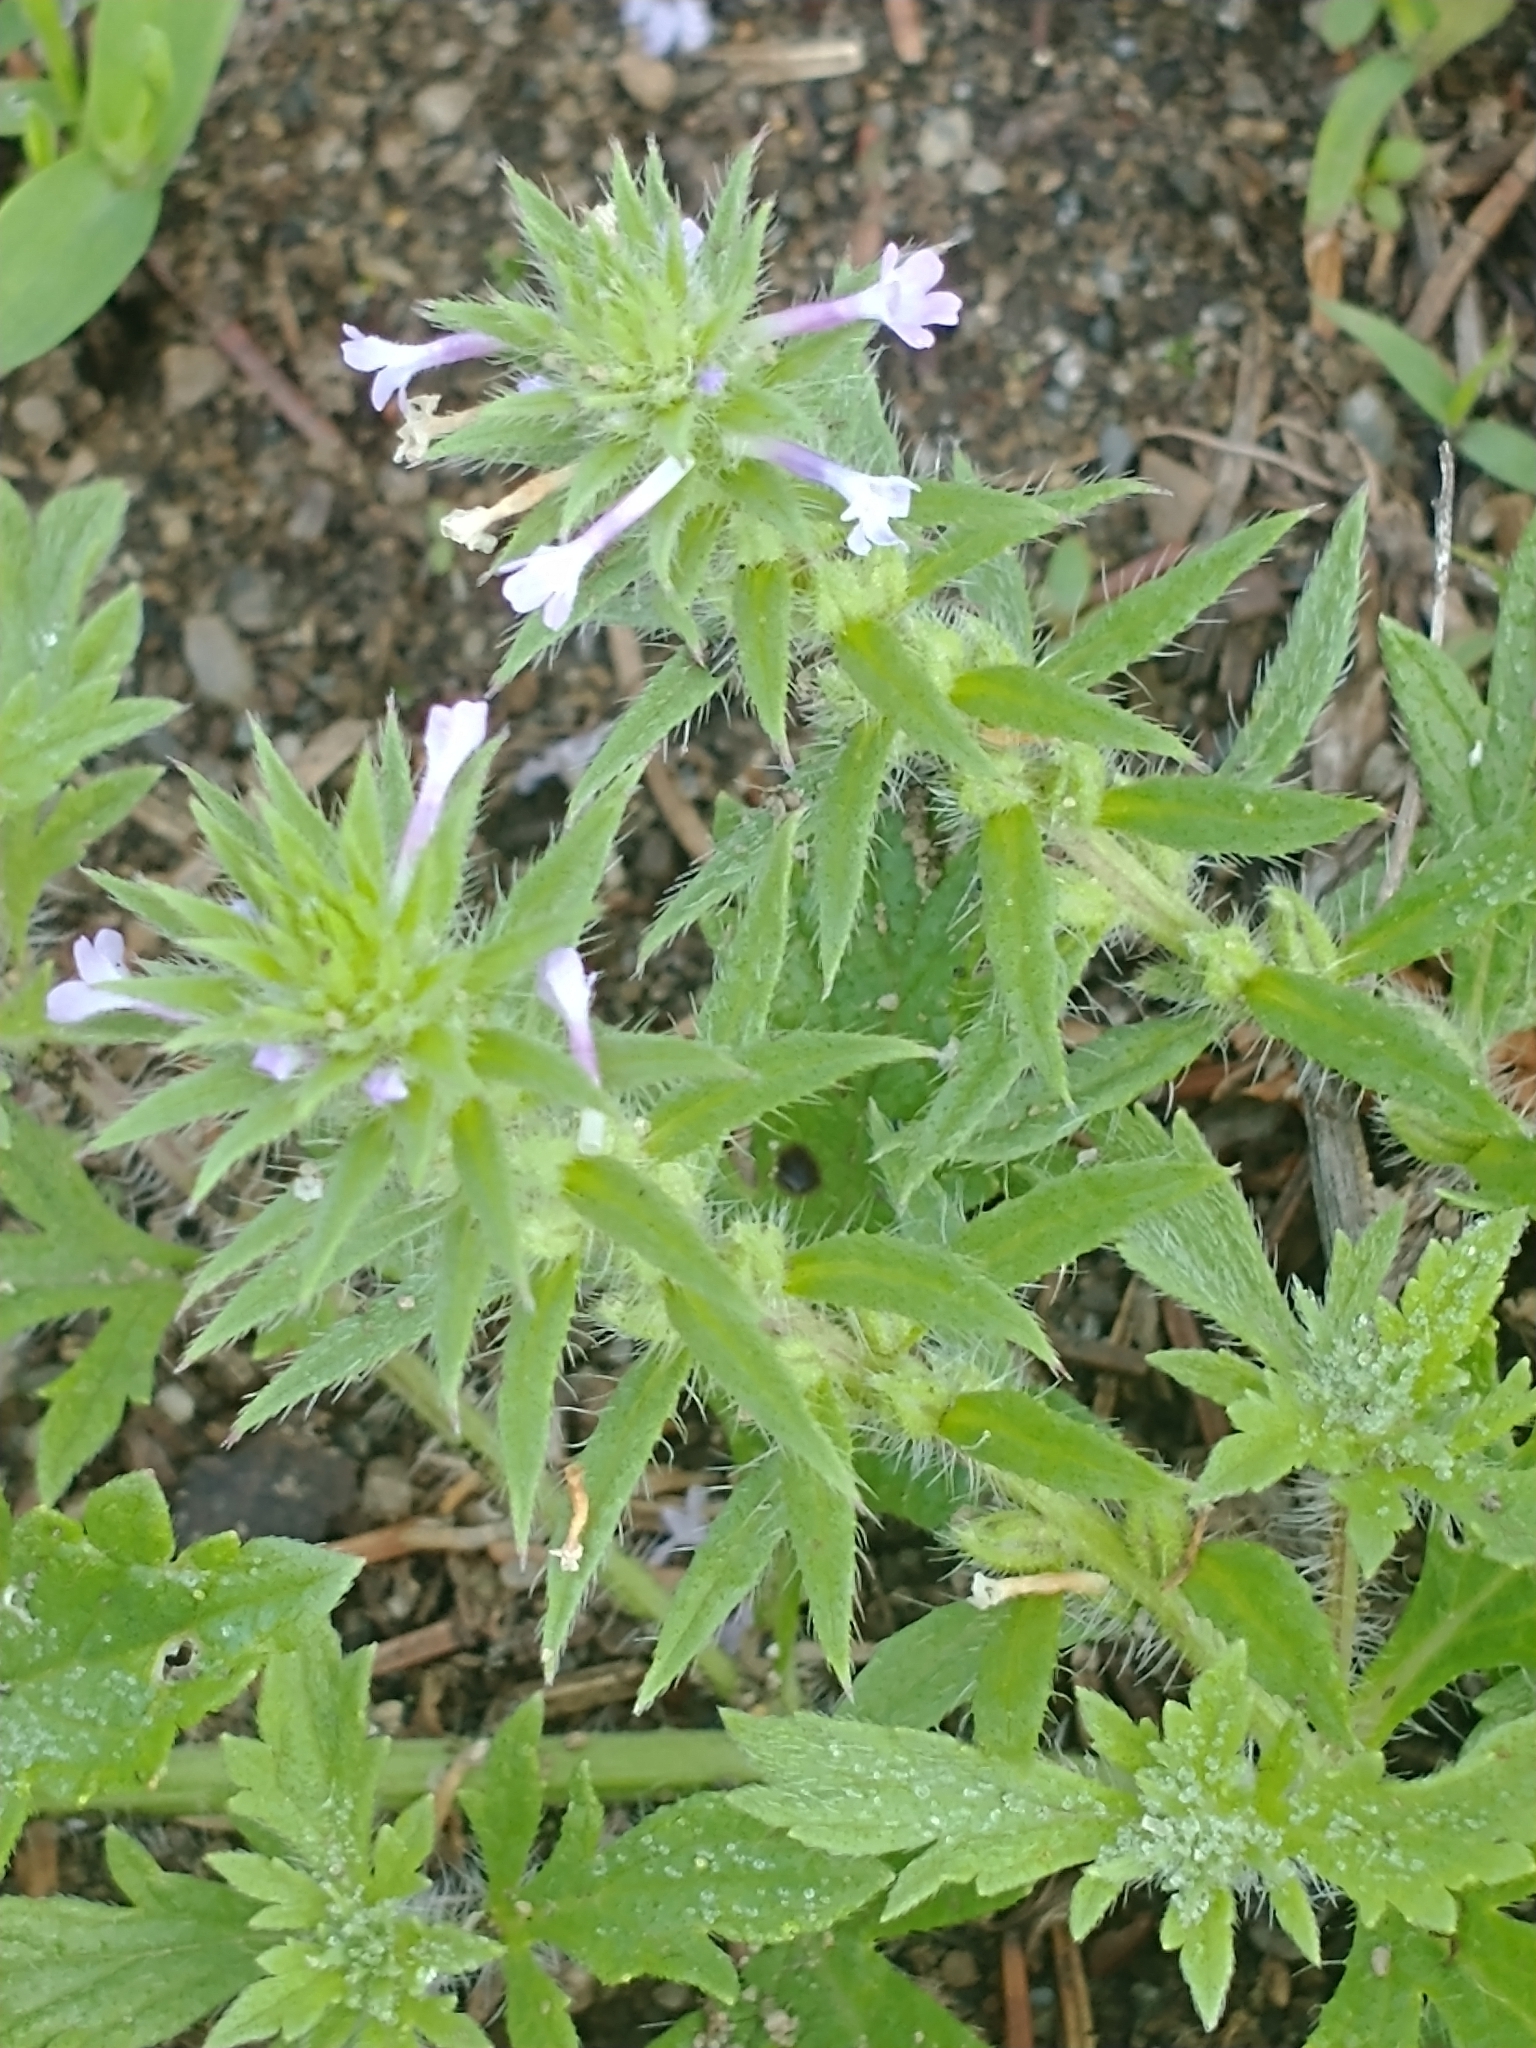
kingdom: Plantae
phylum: Tracheophyta
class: Magnoliopsida
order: Lamiales
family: Verbenaceae
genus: Verbena
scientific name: Verbena bracteata
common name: Bracted vervain
